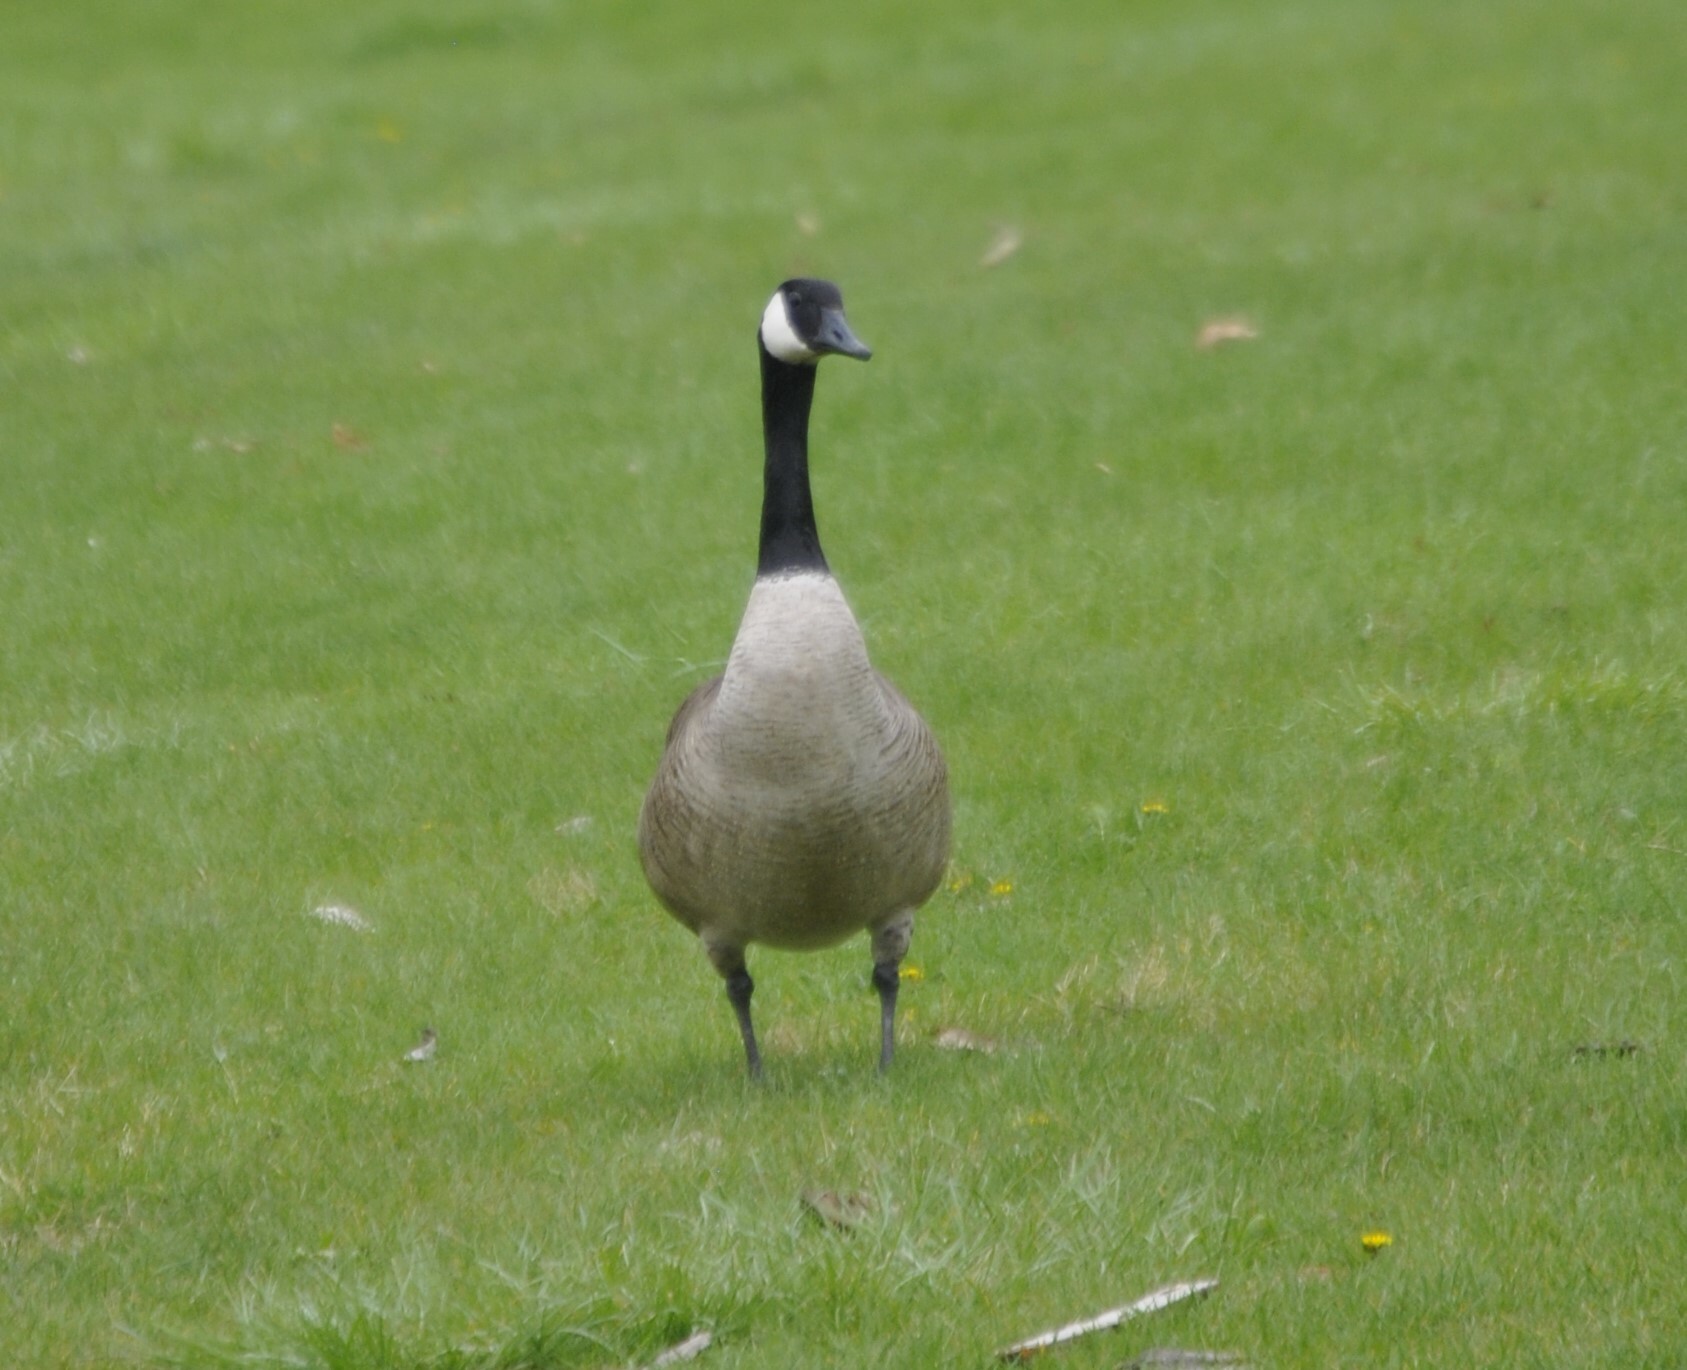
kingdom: Animalia
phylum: Chordata
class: Aves
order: Anseriformes
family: Anatidae
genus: Branta
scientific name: Branta canadensis
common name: Canada goose
